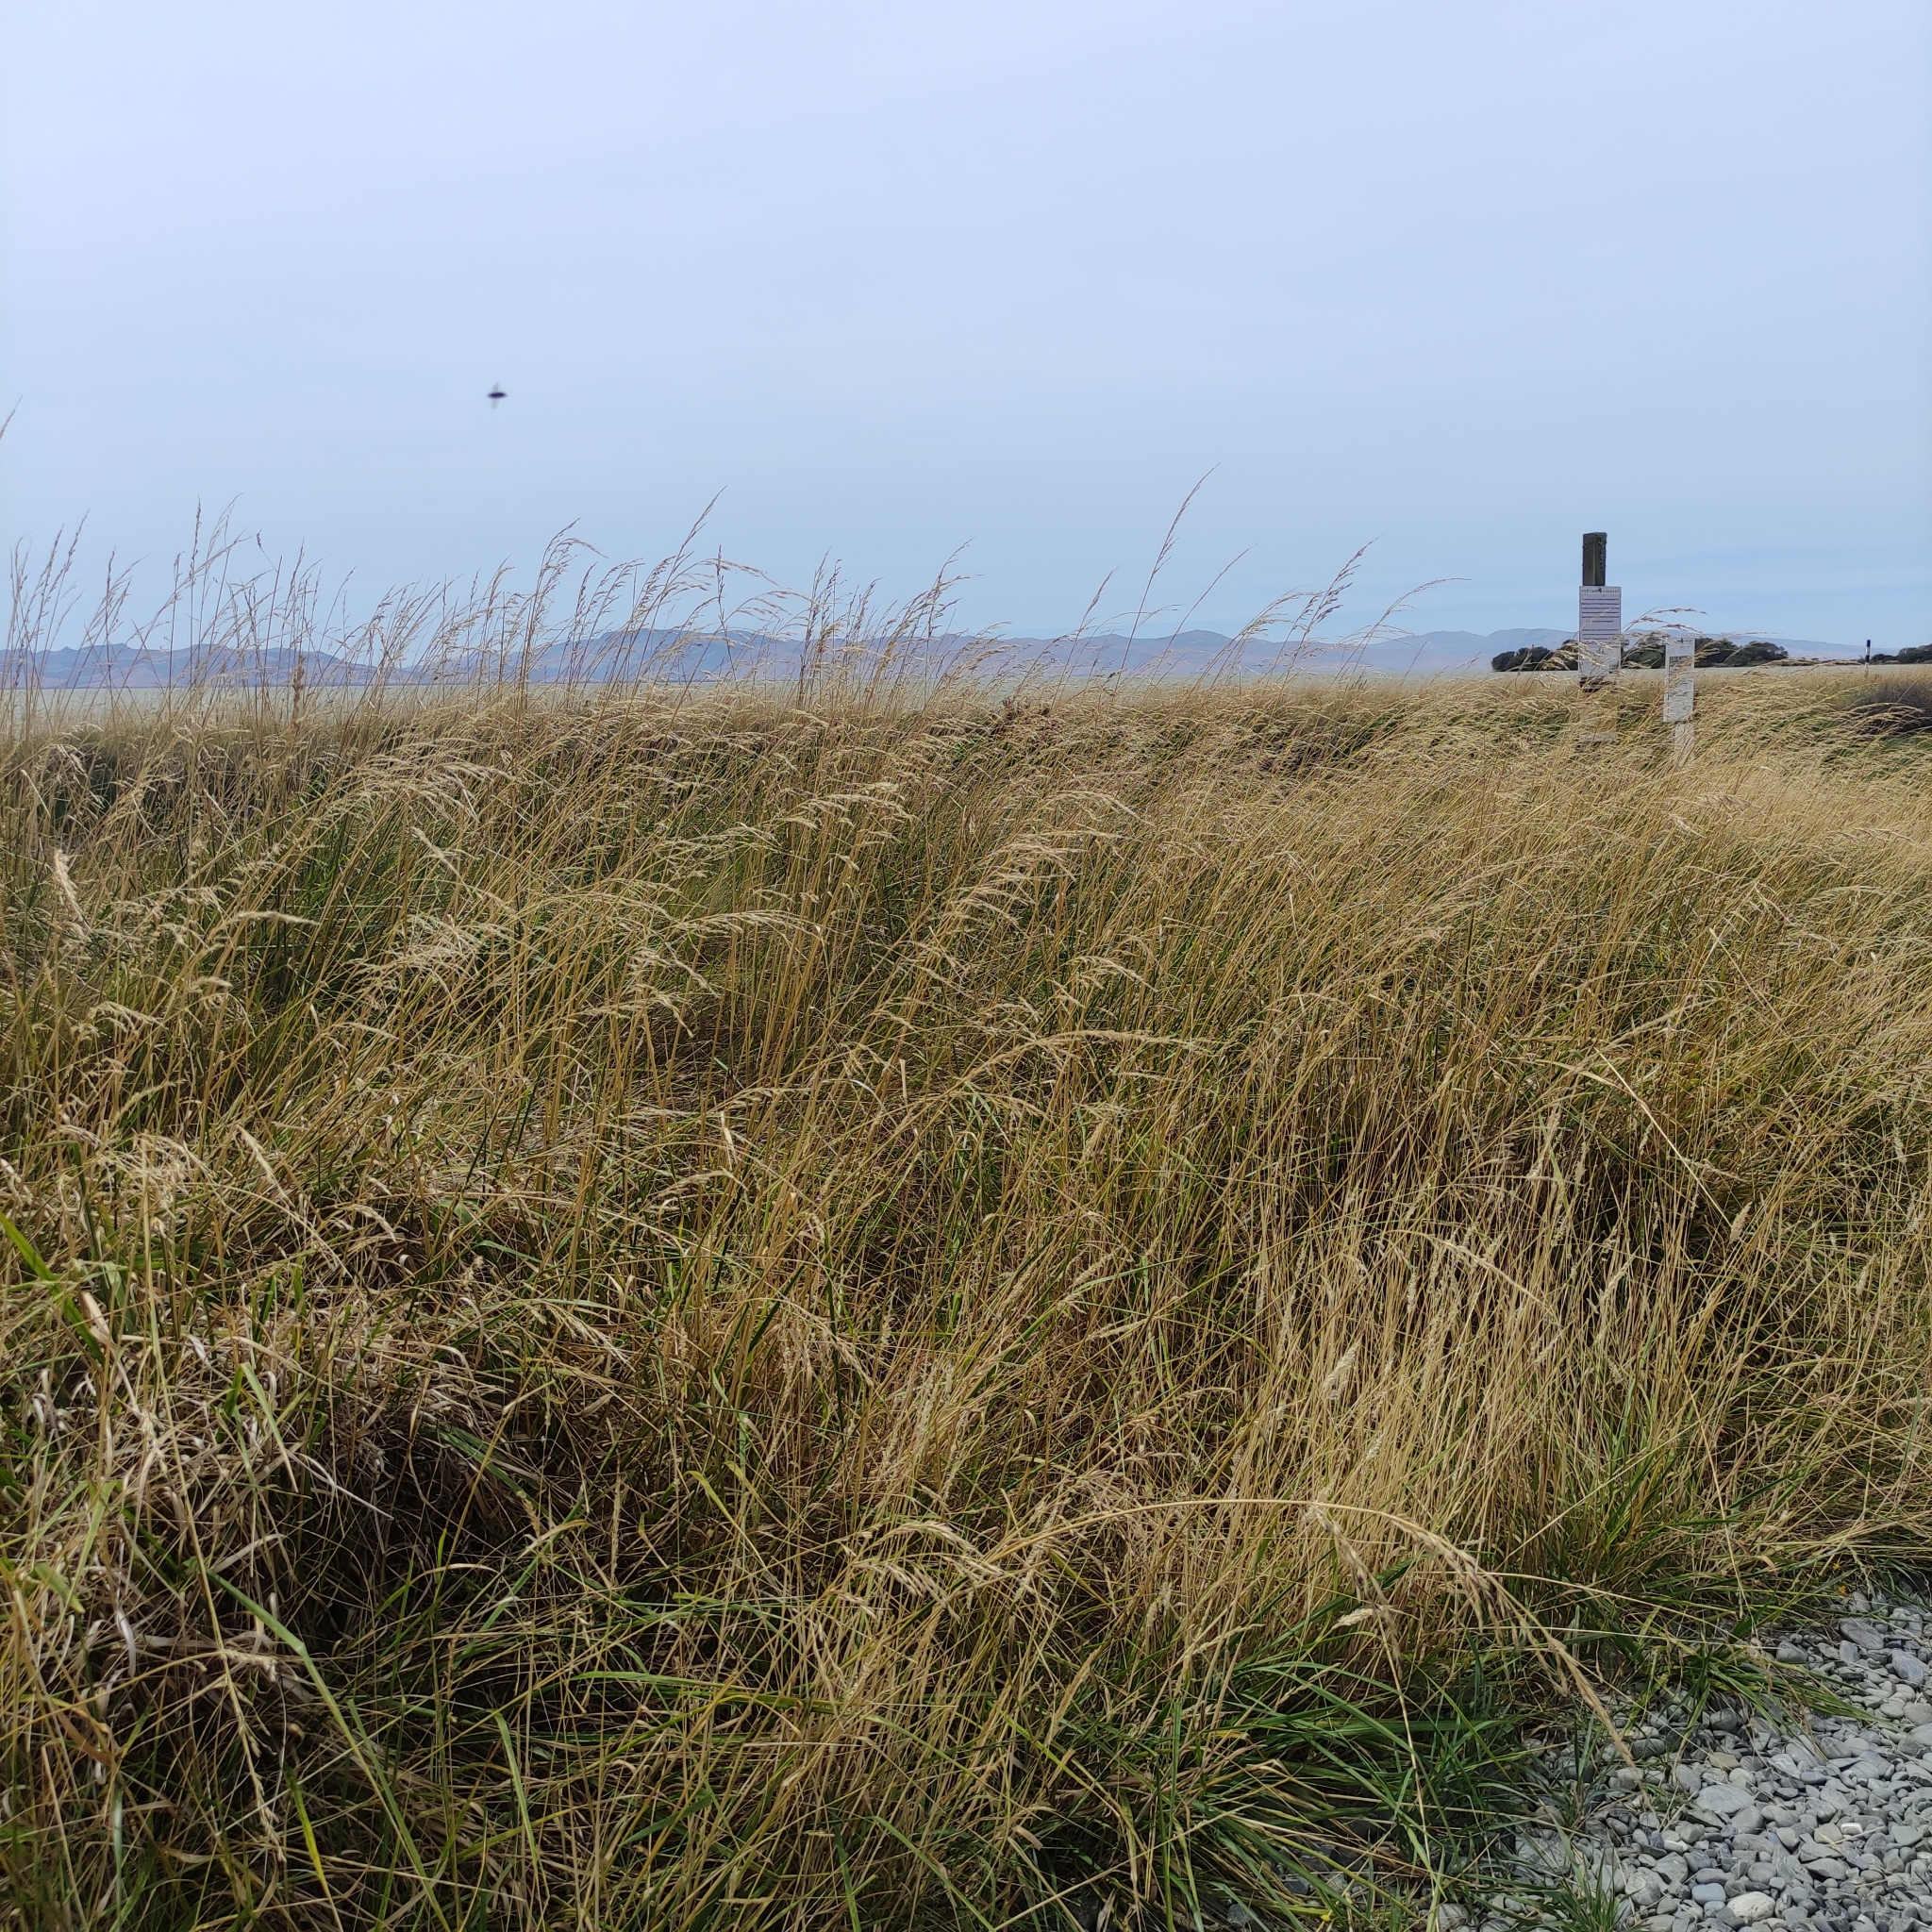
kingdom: Plantae
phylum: Tracheophyta
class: Liliopsida
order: Poales
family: Poaceae
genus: Lolium
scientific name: Lolium arundinaceum
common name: Reed fescue
